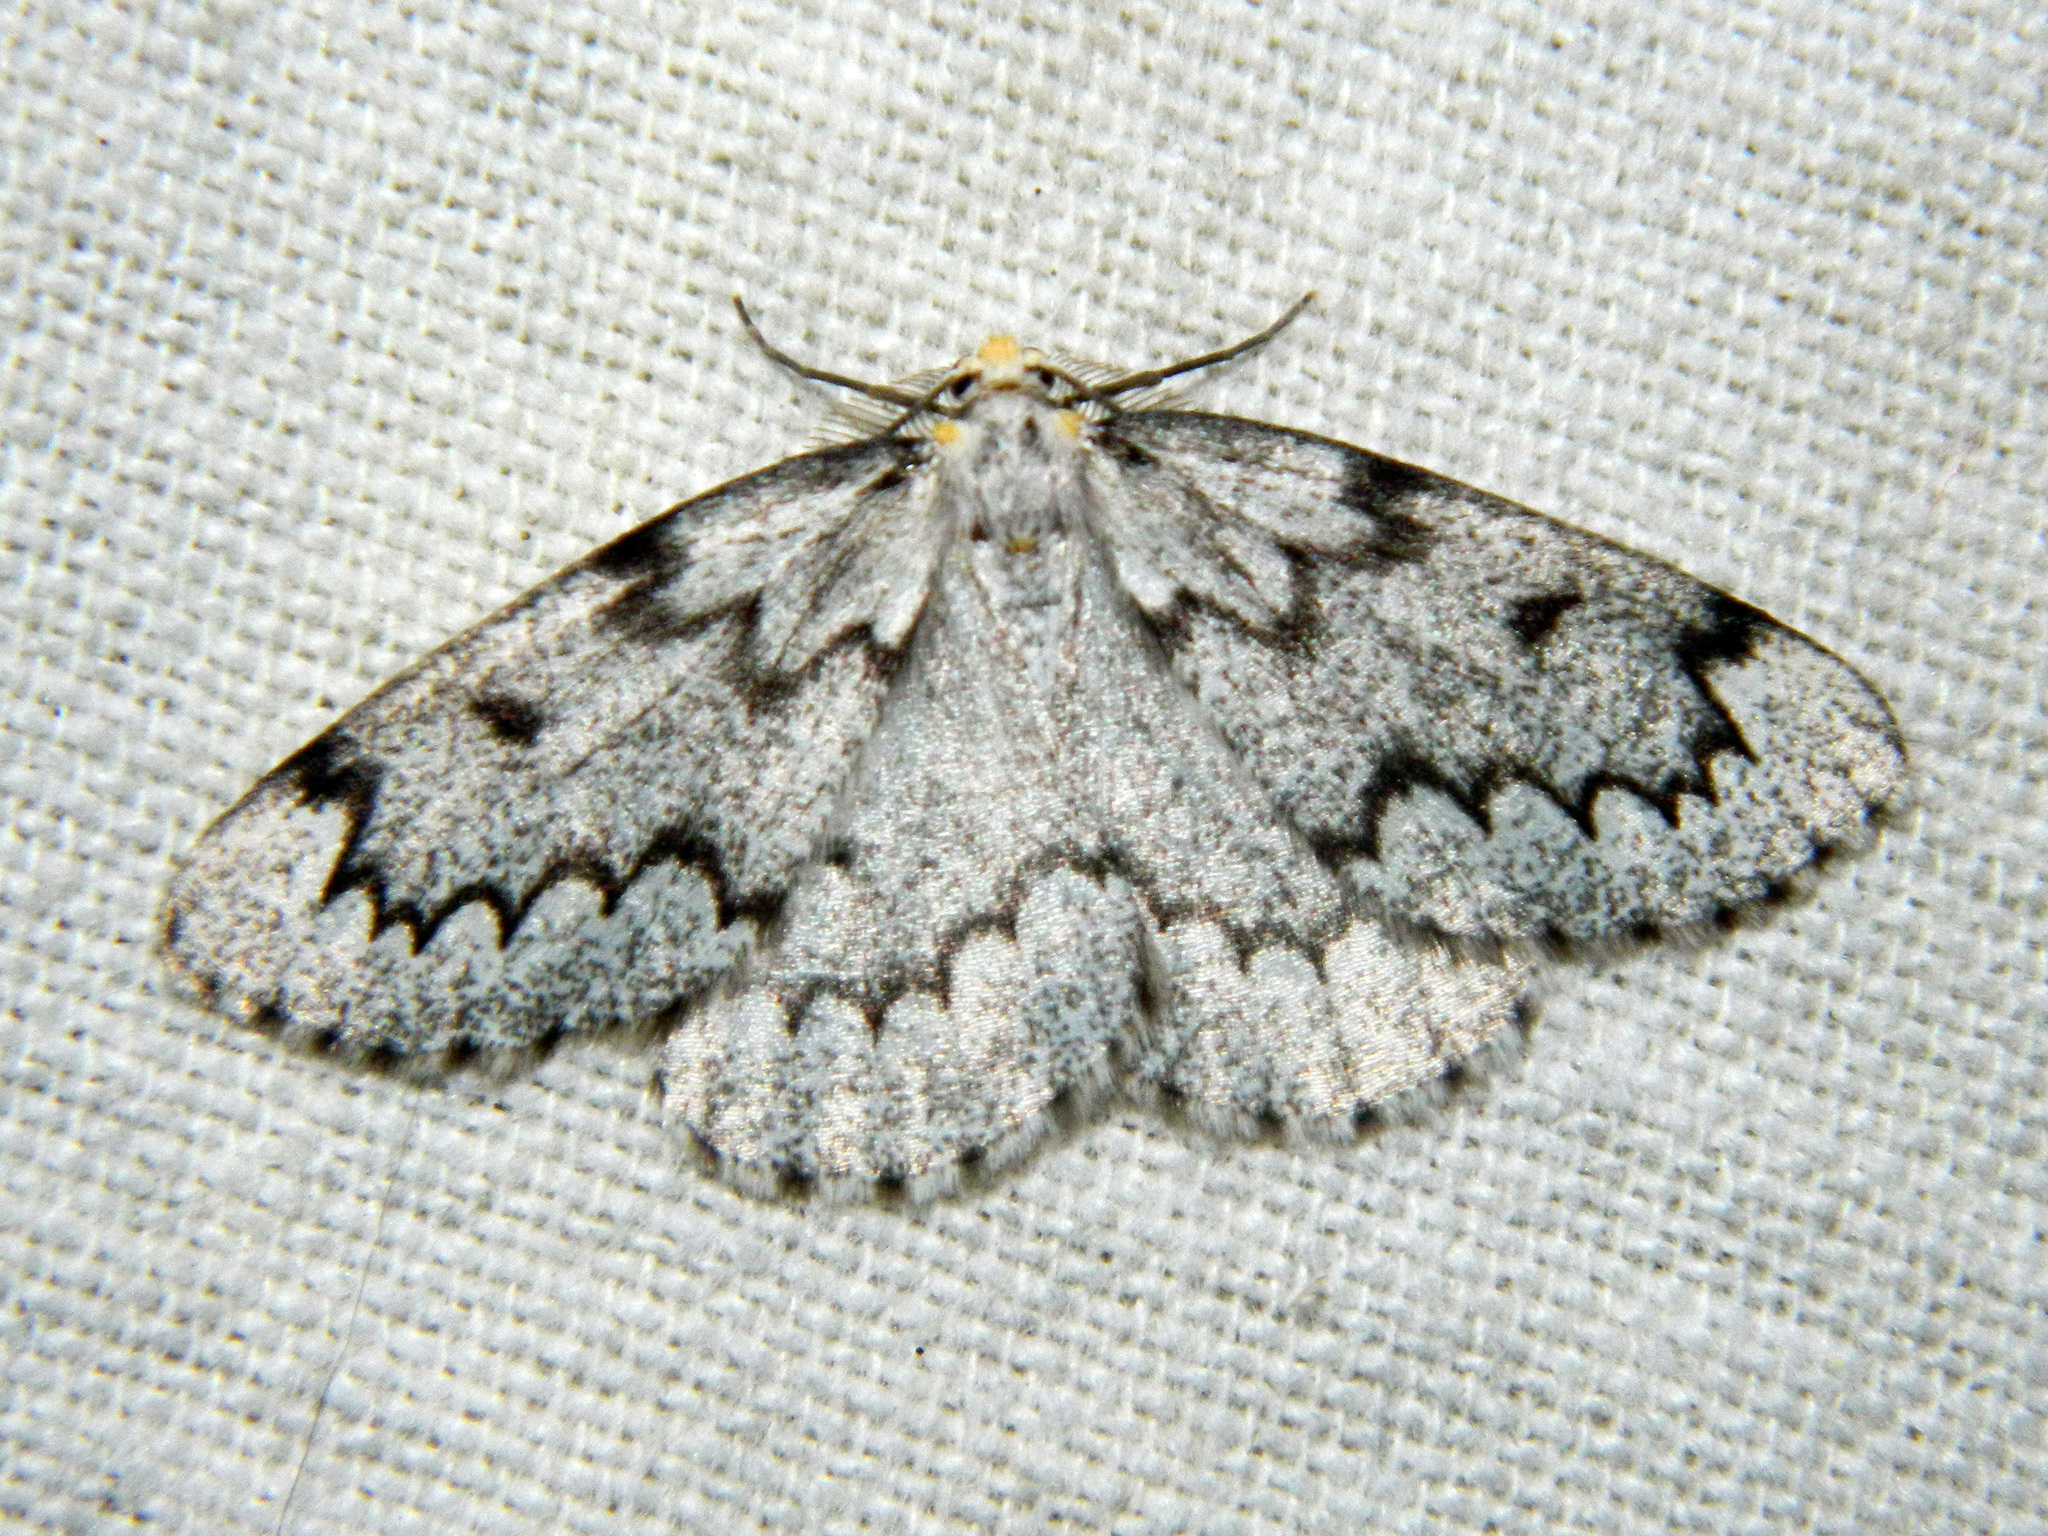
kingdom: Animalia
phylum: Arthropoda
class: Insecta
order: Lepidoptera
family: Geometridae
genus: Nepytia
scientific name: Nepytia canosaria
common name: False hemlock looper
